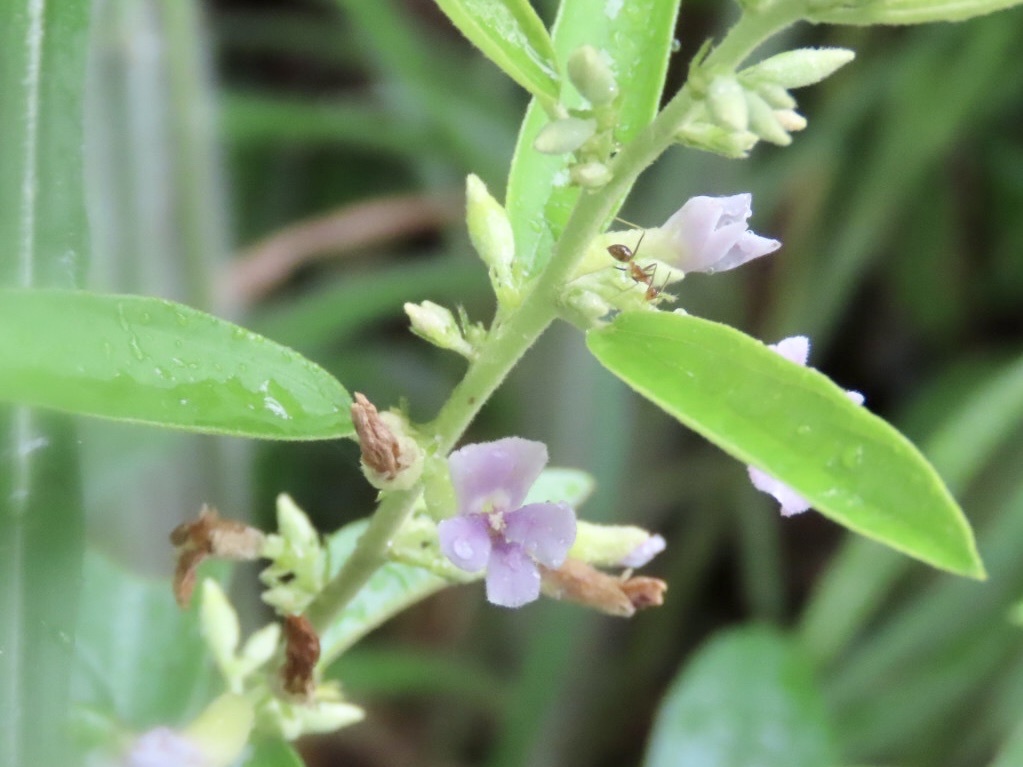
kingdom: Plantae
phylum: Tracheophyta
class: Magnoliopsida
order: Malvales
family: Malvaceae
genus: Helicteres
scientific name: Helicteres angustifolia
